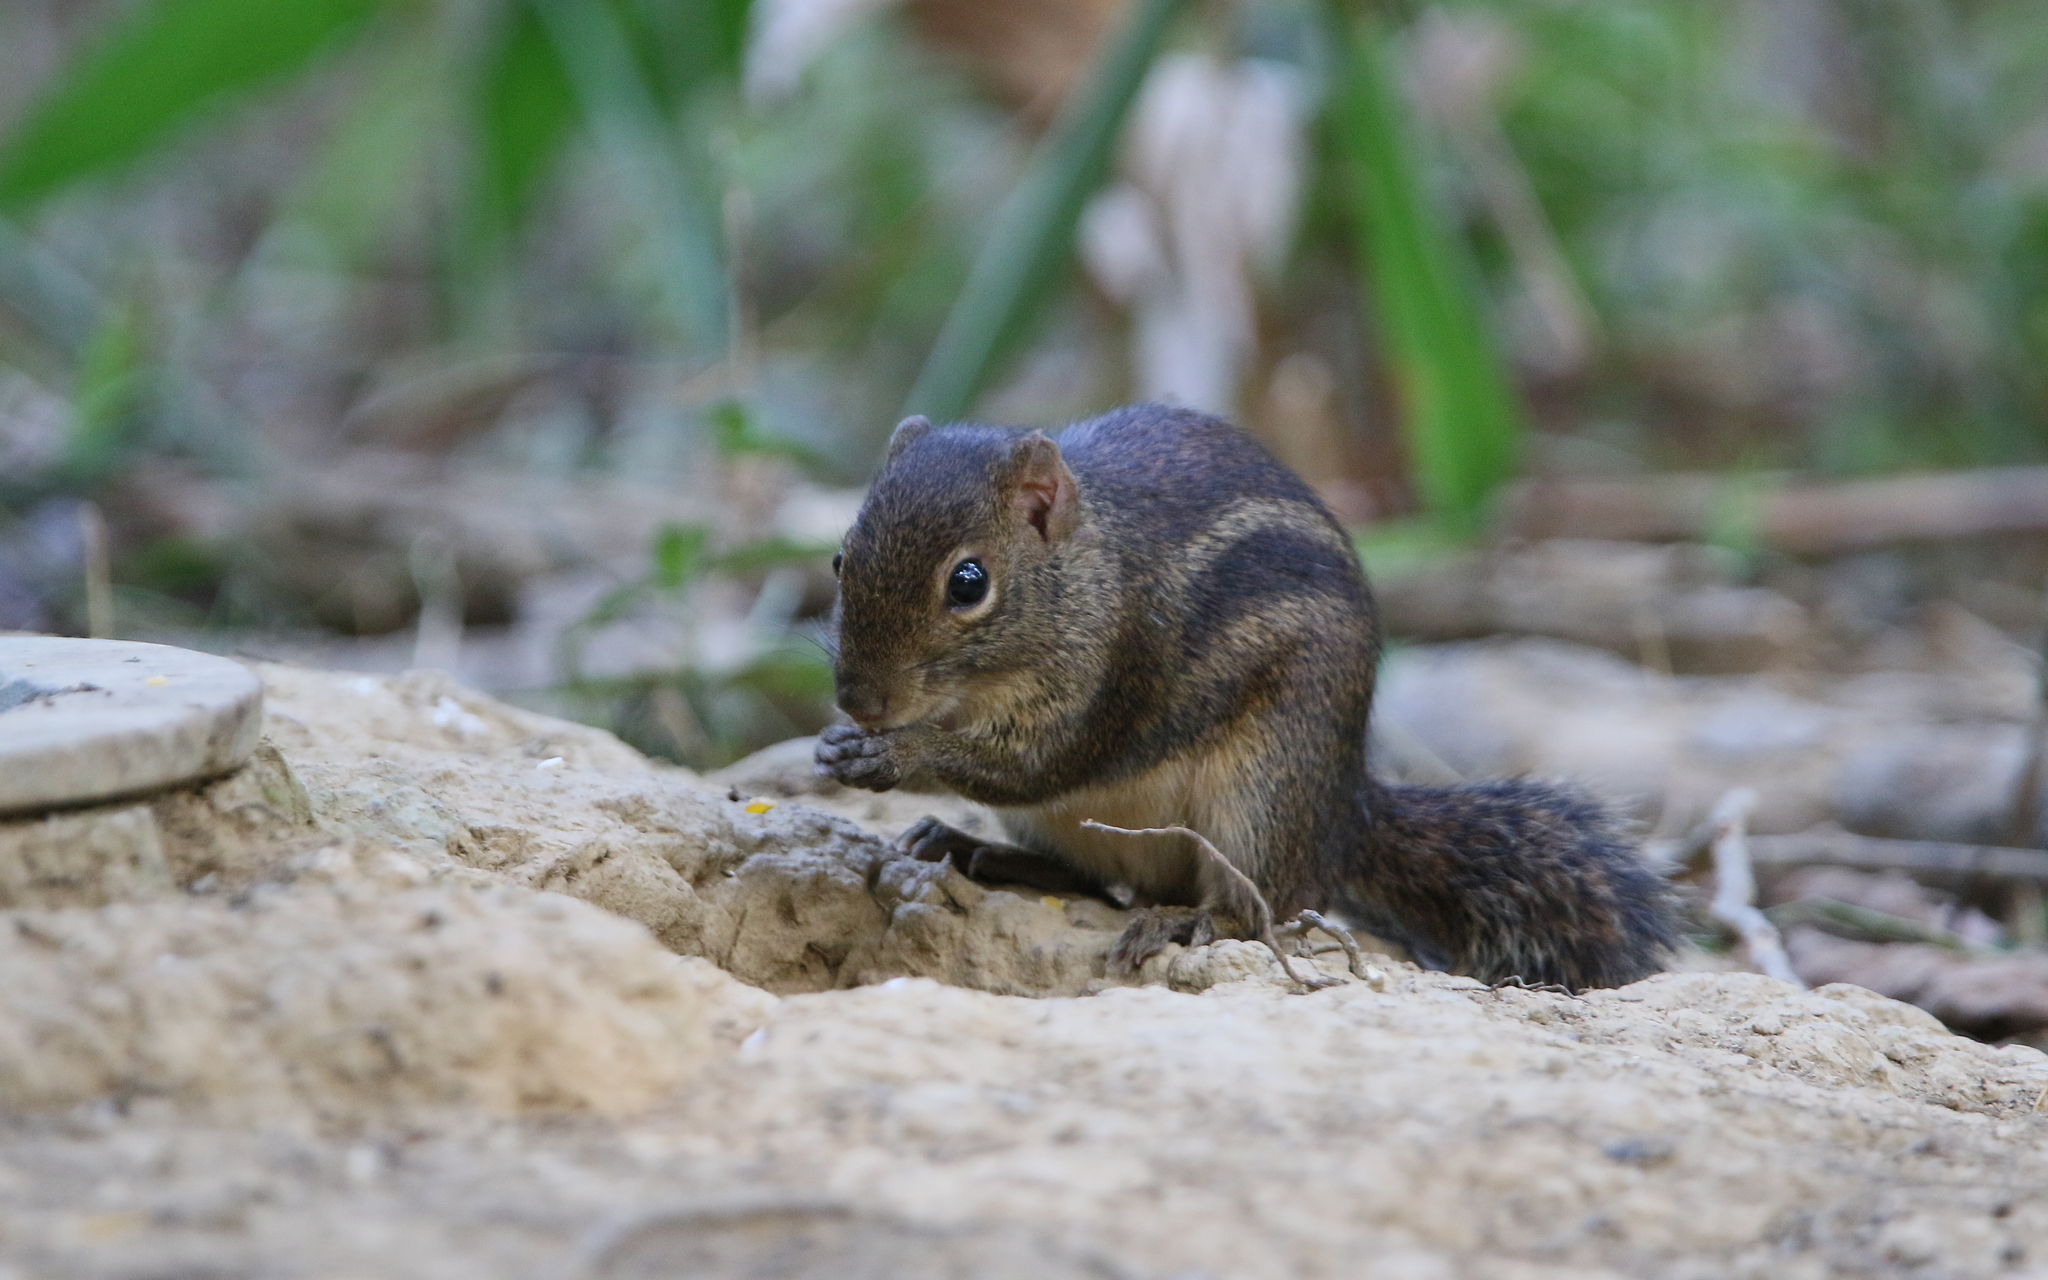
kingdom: Animalia
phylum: Chordata
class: Mammalia
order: Rodentia
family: Sciuridae
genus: Menetes
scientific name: Menetes berdmorei
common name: Indochinese ground squirrel
